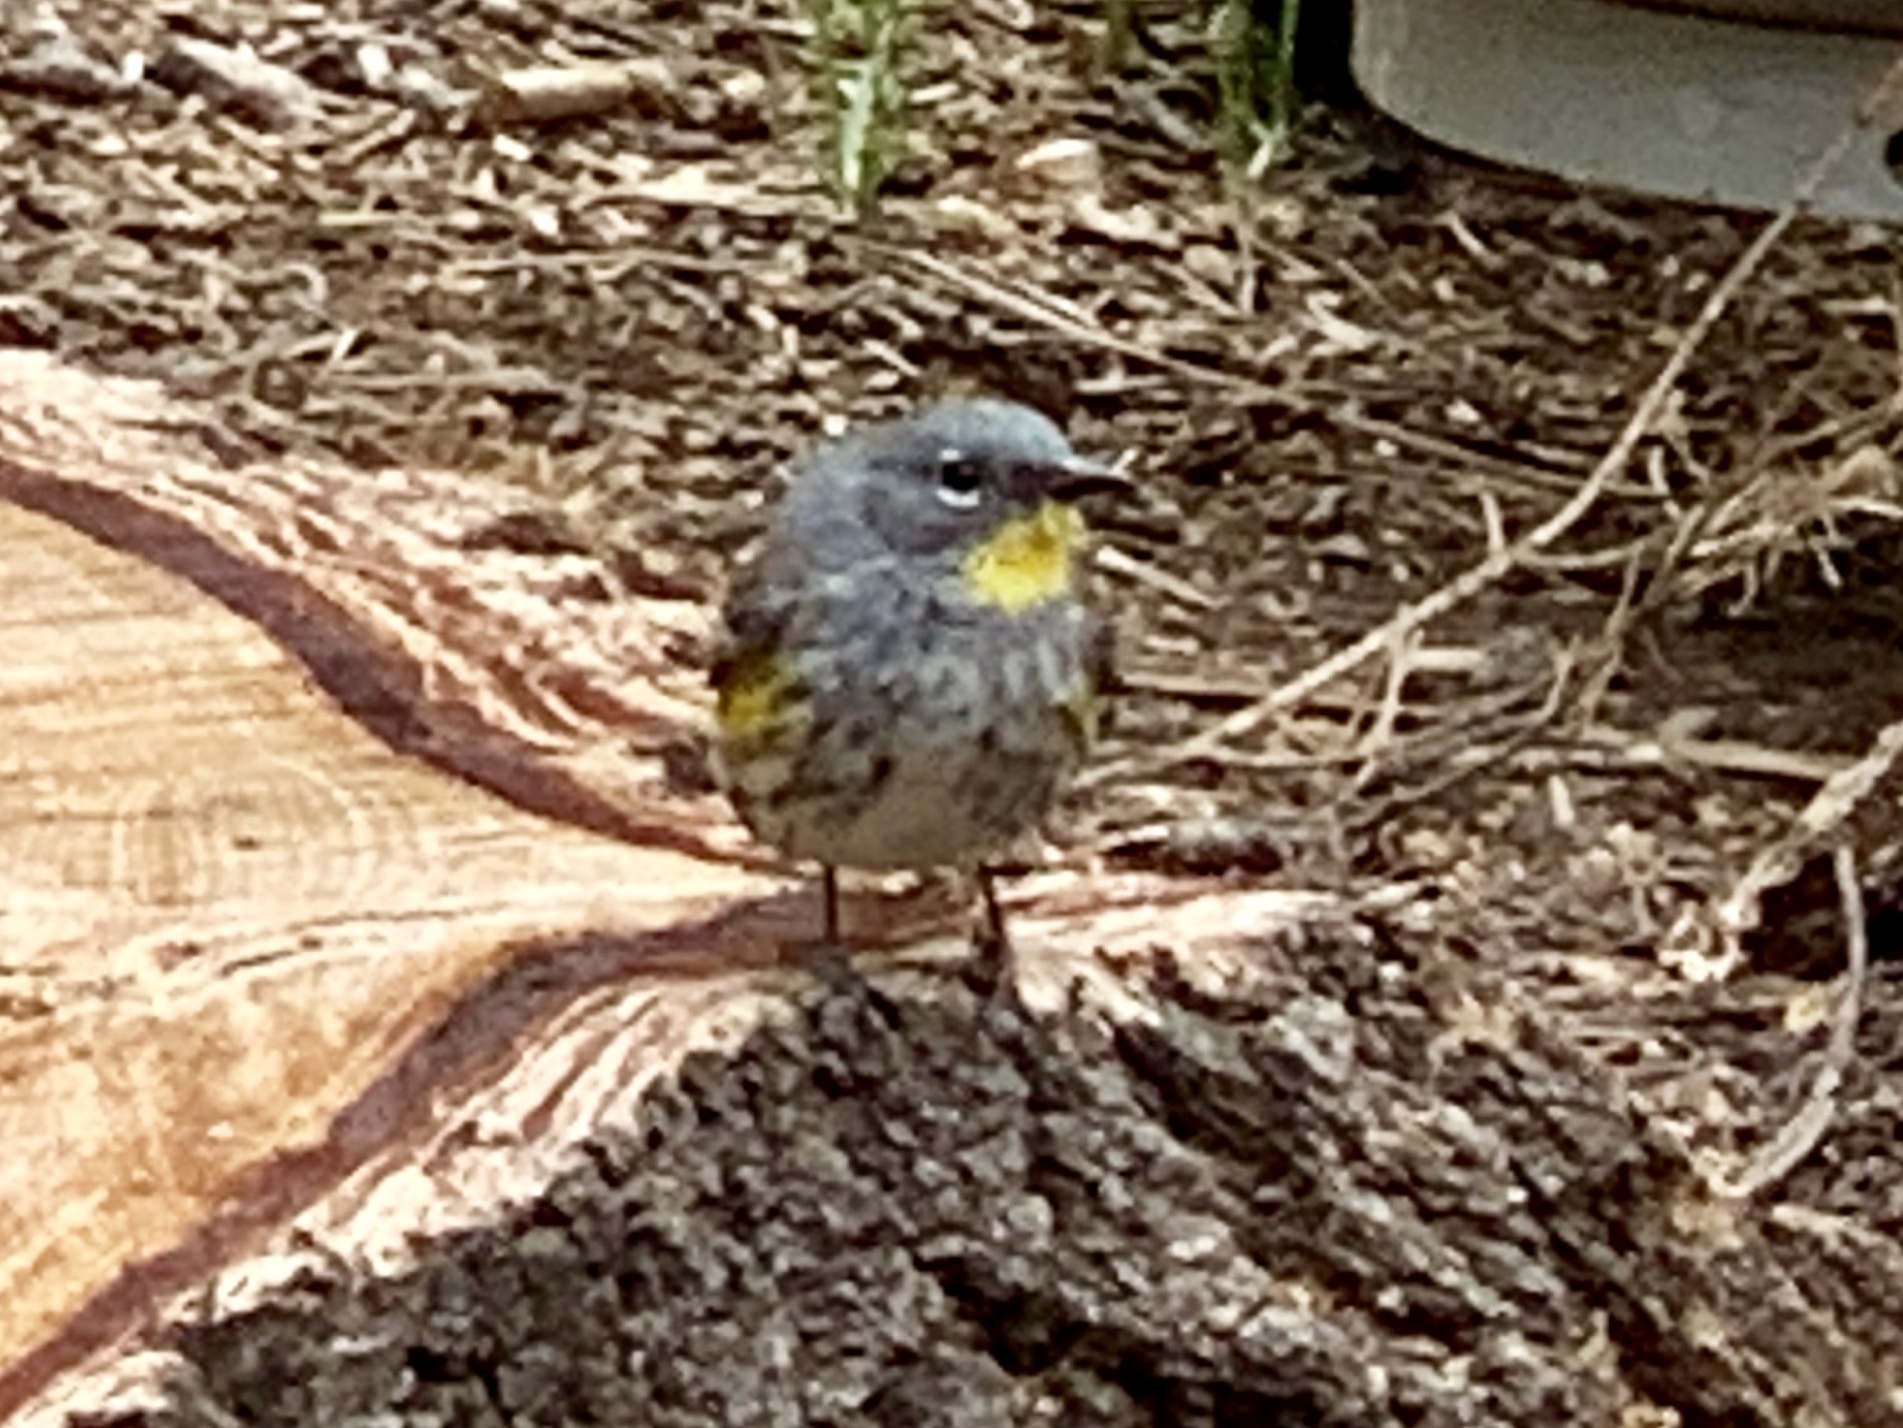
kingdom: Animalia
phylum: Chordata
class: Aves
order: Passeriformes
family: Parulidae
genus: Setophaga
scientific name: Setophaga coronata
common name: Myrtle warbler
